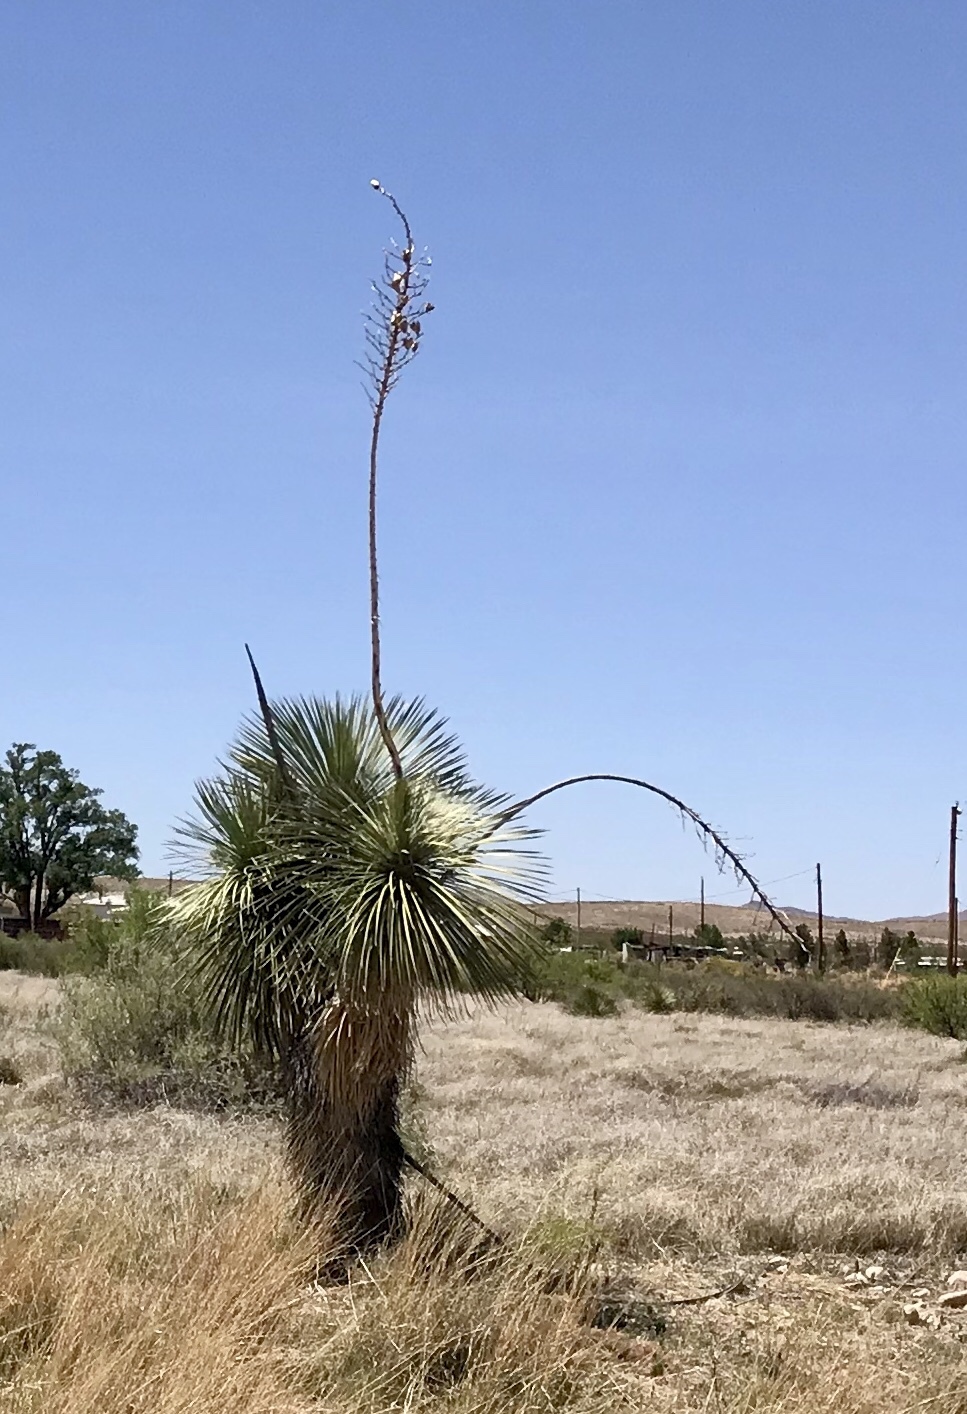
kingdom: Plantae
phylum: Tracheophyta
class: Liliopsida
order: Asparagales
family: Asparagaceae
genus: Yucca
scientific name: Yucca elata
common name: Palmella
